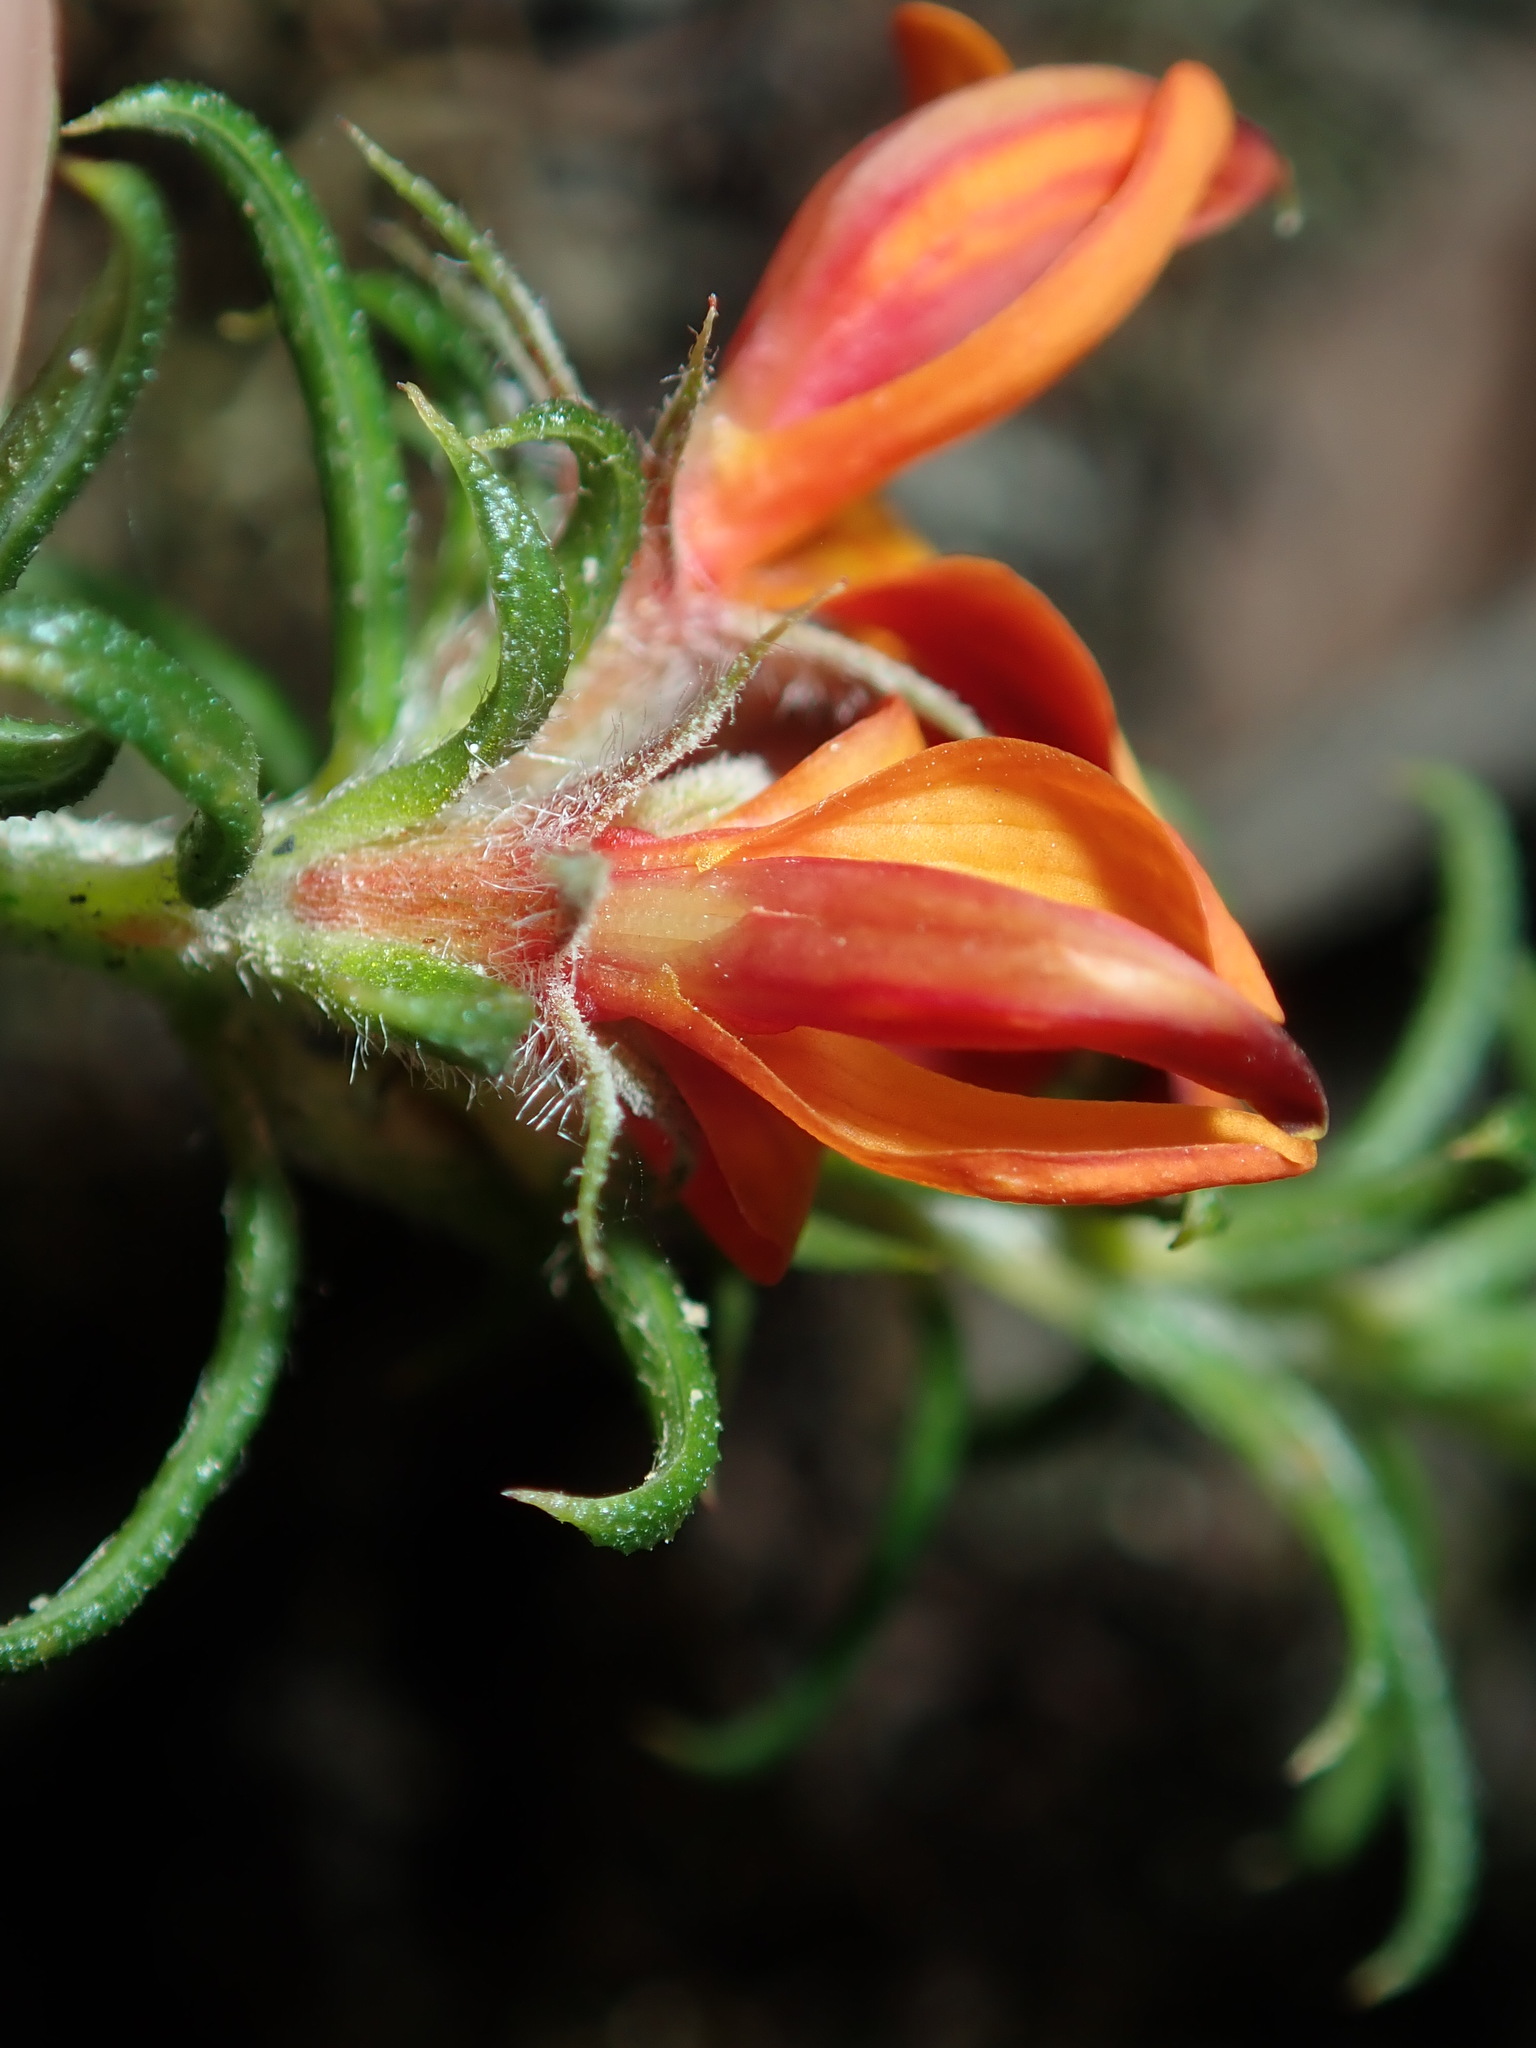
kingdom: Plantae
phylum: Tracheophyta
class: Magnoliopsida
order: Fabales
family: Fabaceae
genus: Phyllota
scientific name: Phyllota squarrosa
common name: Dense phyllota
